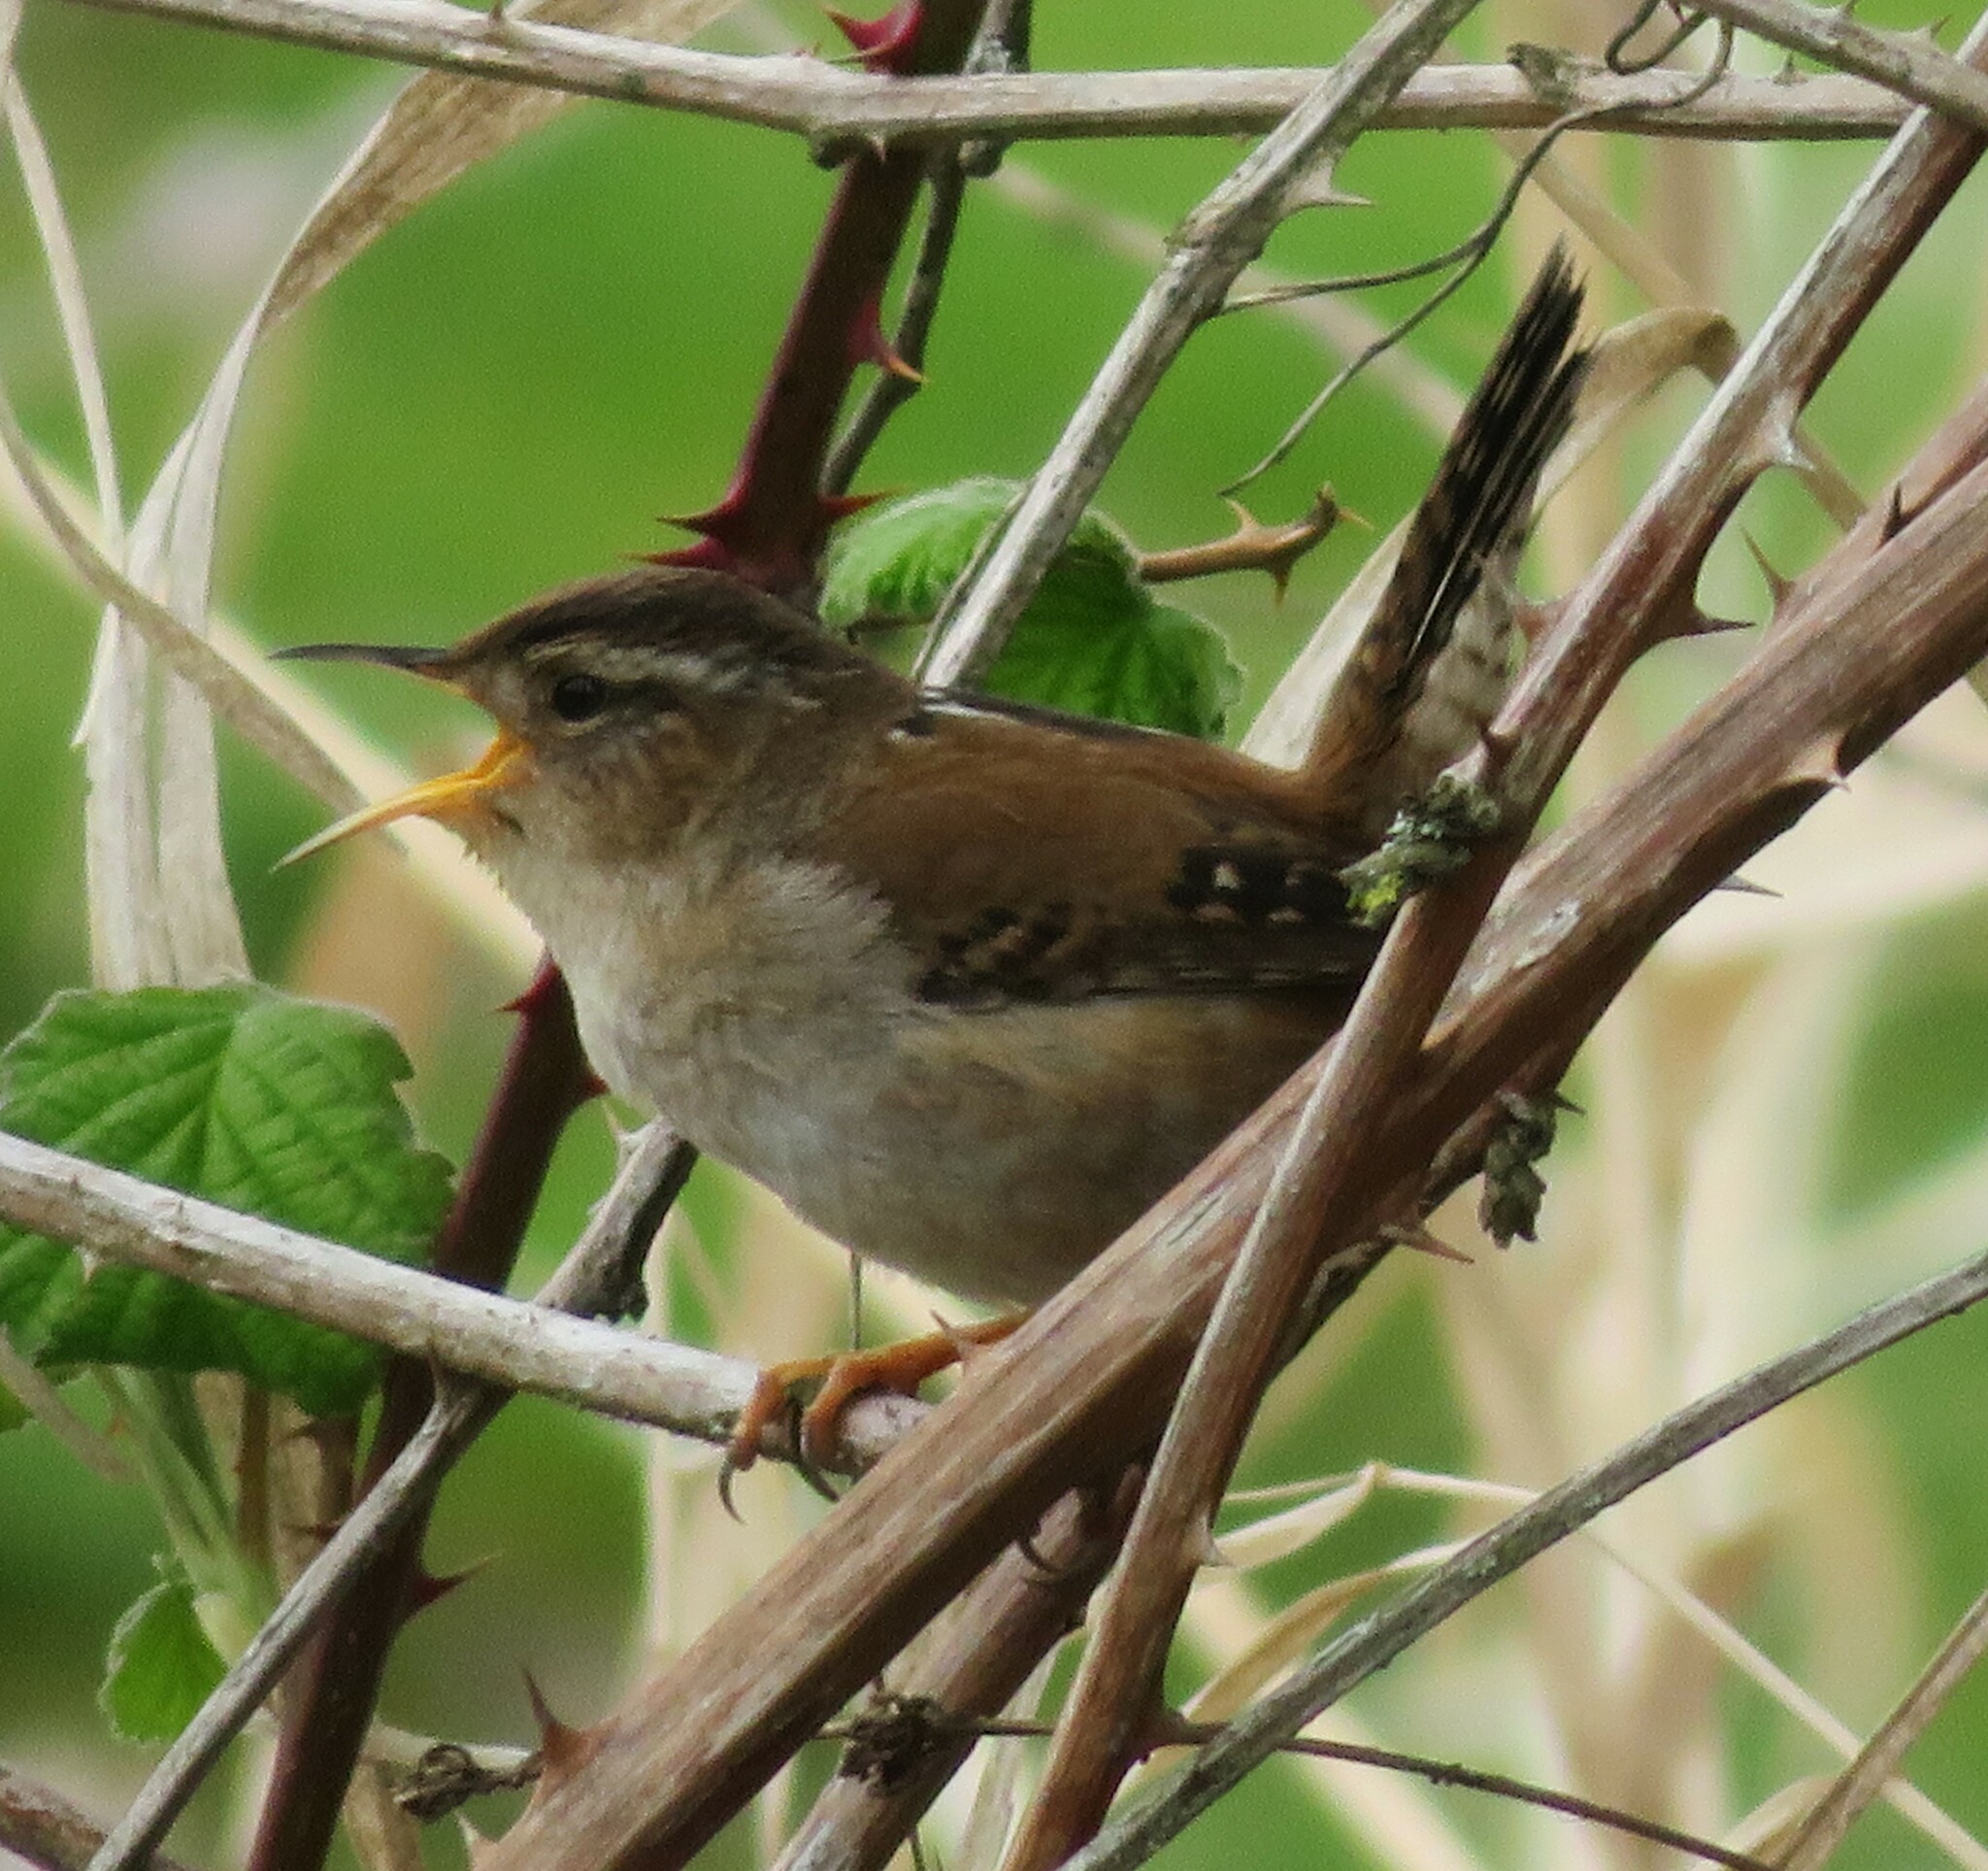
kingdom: Animalia
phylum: Chordata
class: Aves
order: Passeriformes
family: Troglodytidae
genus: Cistothorus
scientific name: Cistothorus palustris
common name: Marsh wren
